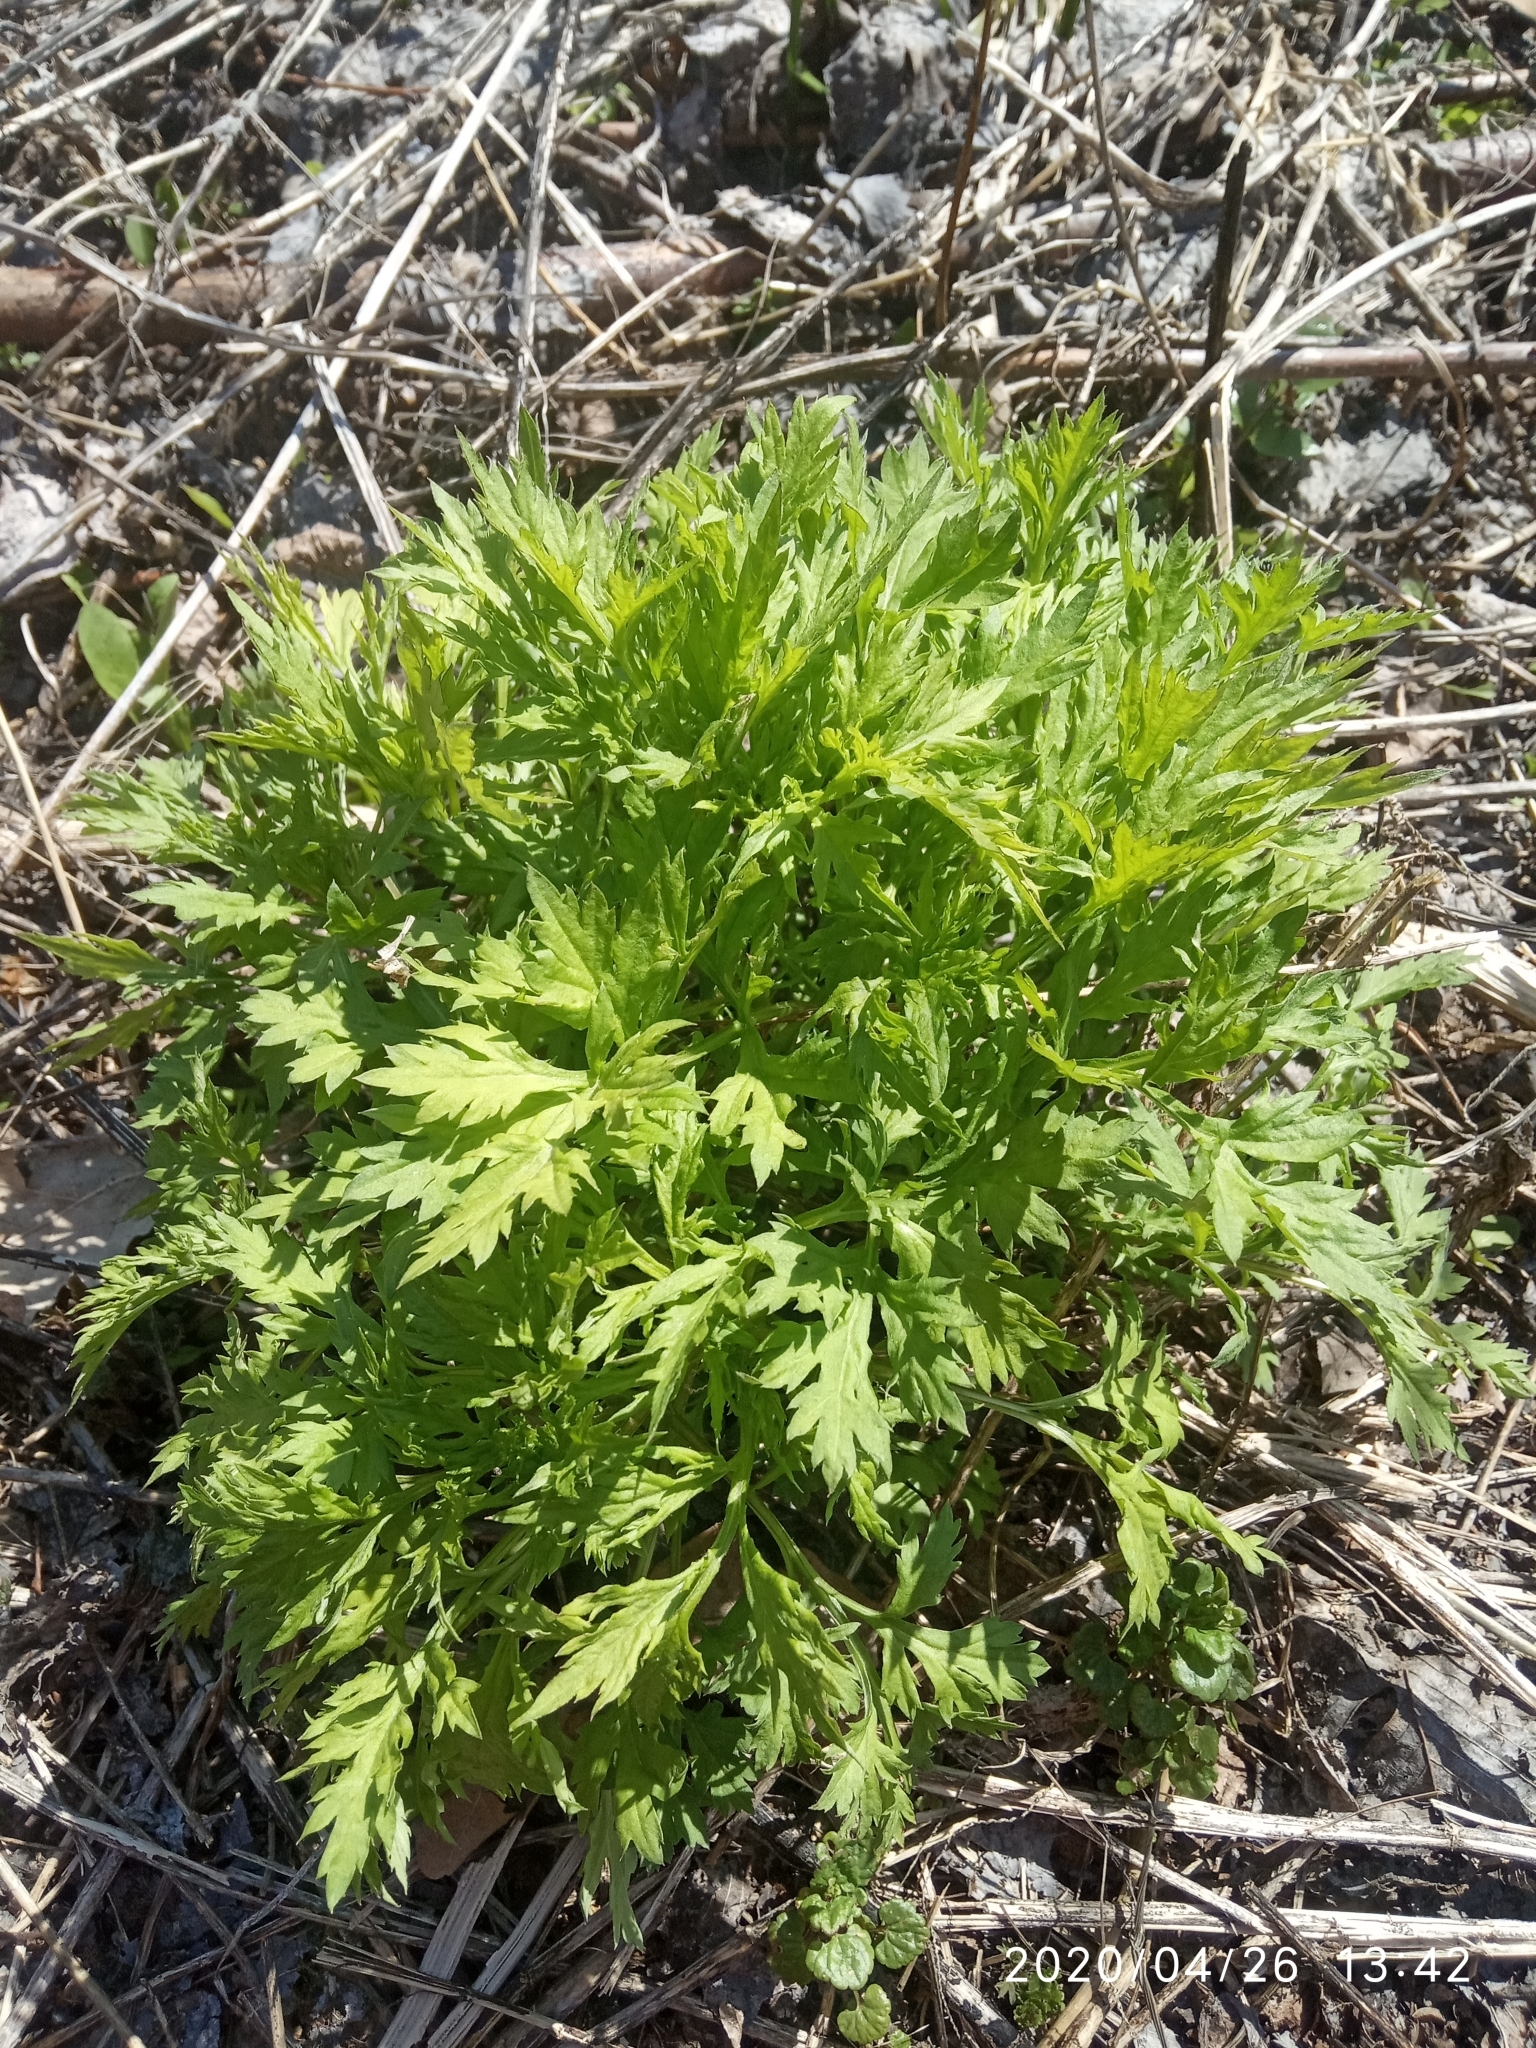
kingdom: Plantae
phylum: Tracheophyta
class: Magnoliopsida
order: Asterales
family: Asteraceae
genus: Artemisia
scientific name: Artemisia vulgaris
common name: Mugwort
